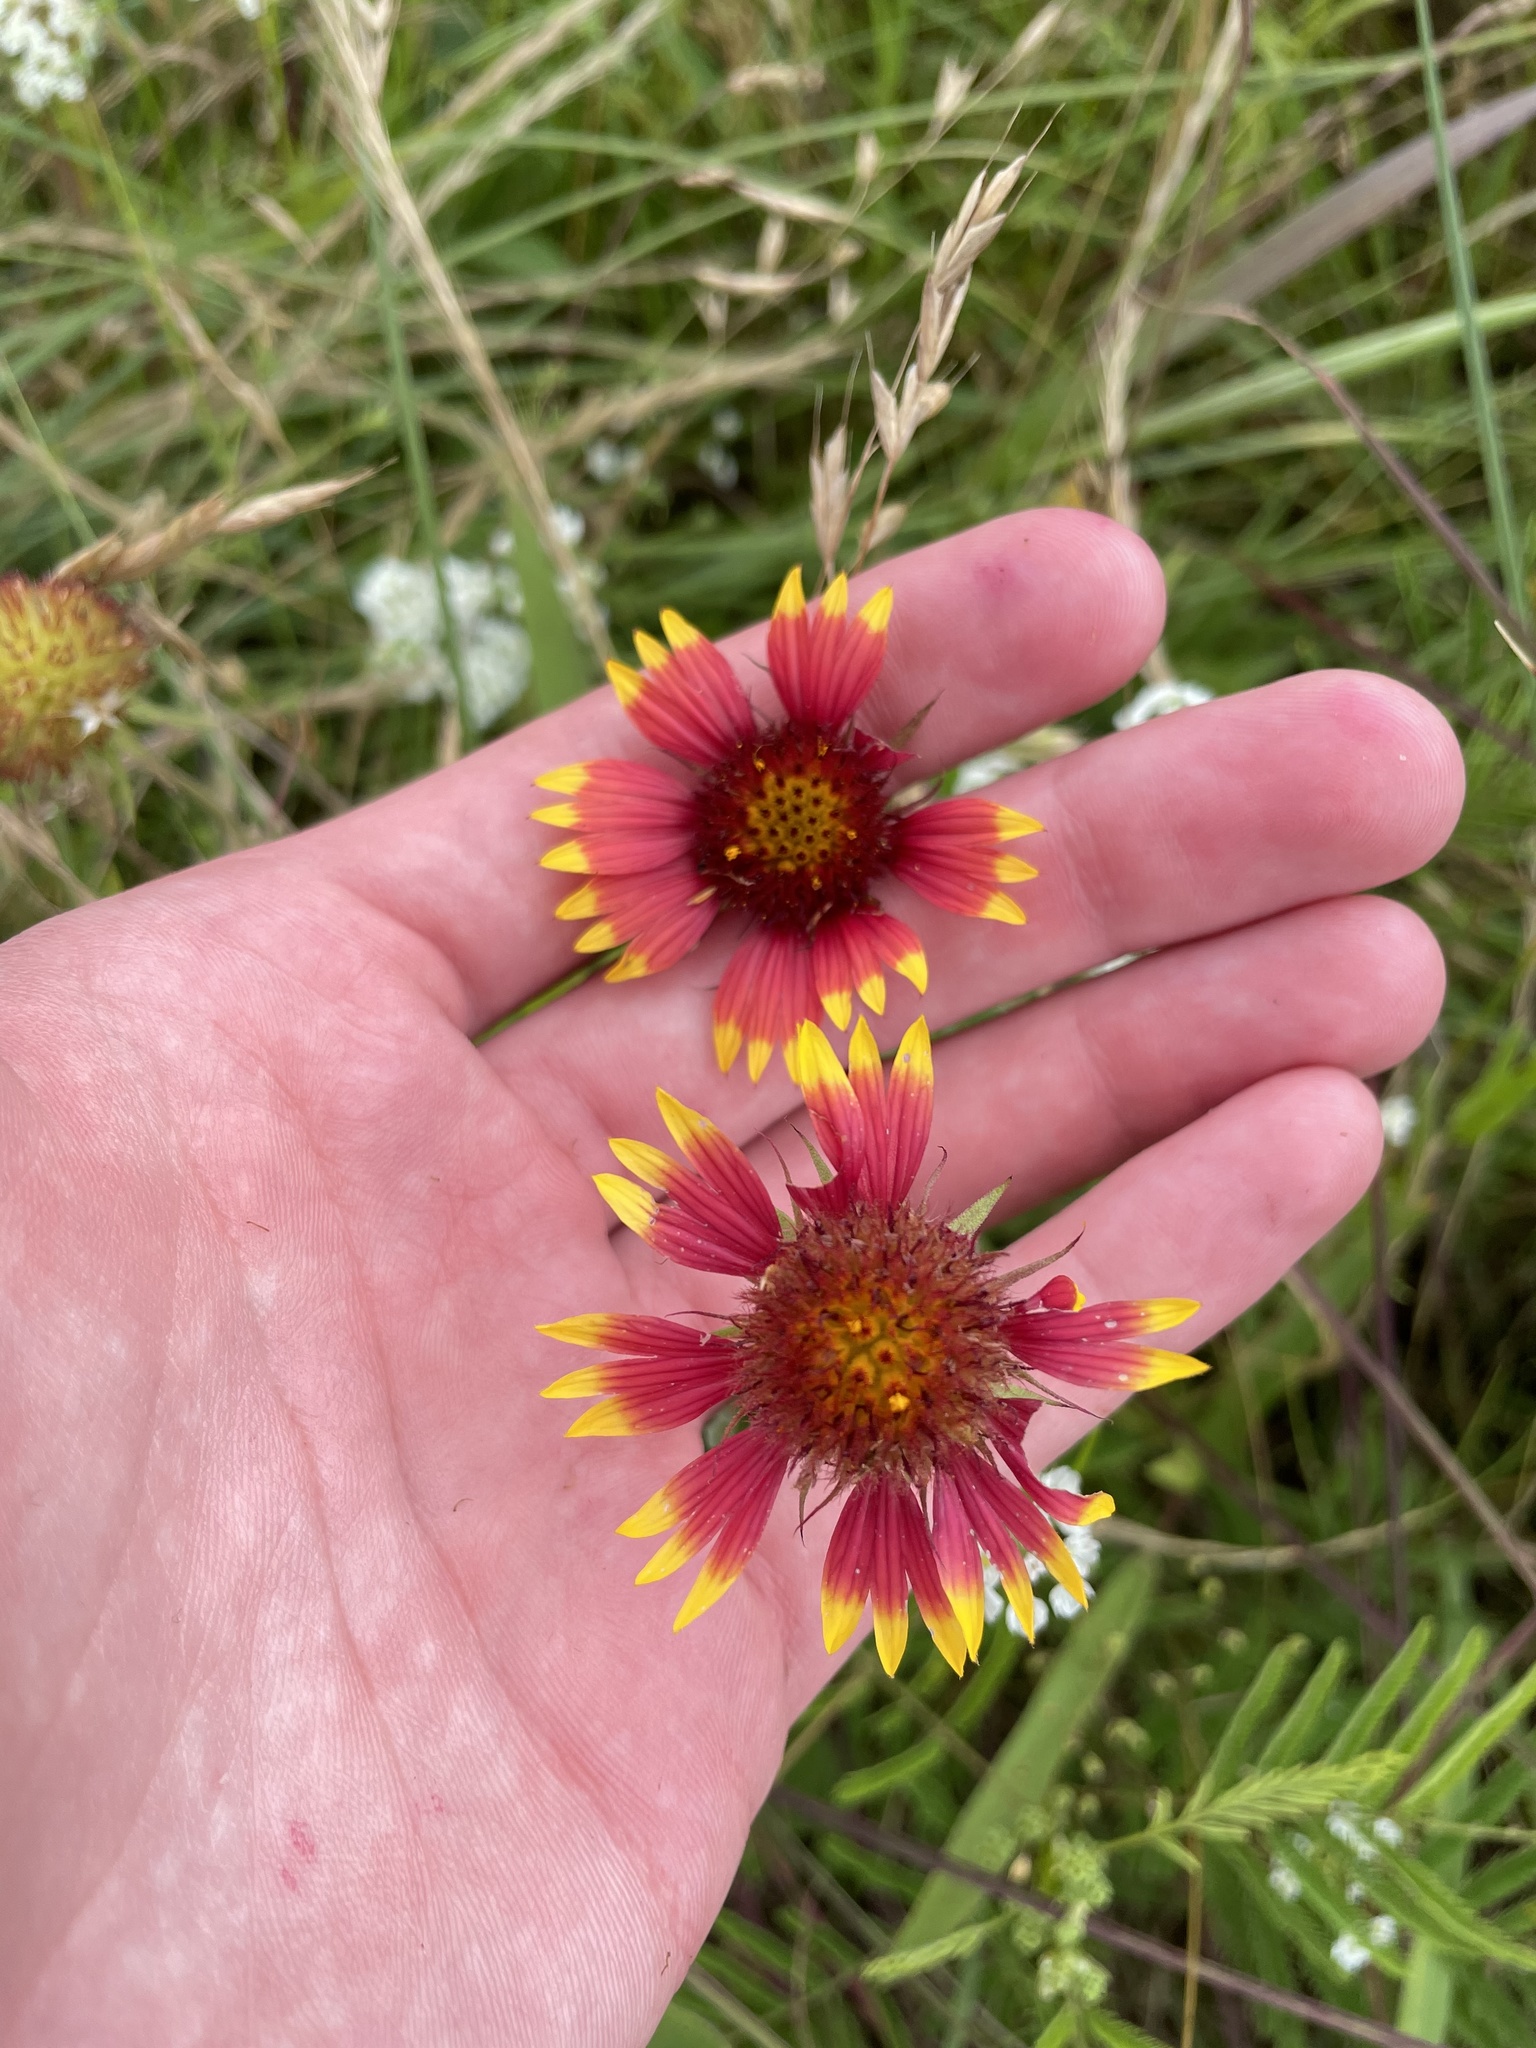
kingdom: Plantae
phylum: Tracheophyta
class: Magnoliopsida
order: Asterales
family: Asteraceae
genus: Gaillardia
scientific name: Gaillardia pulchella
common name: Firewheel
